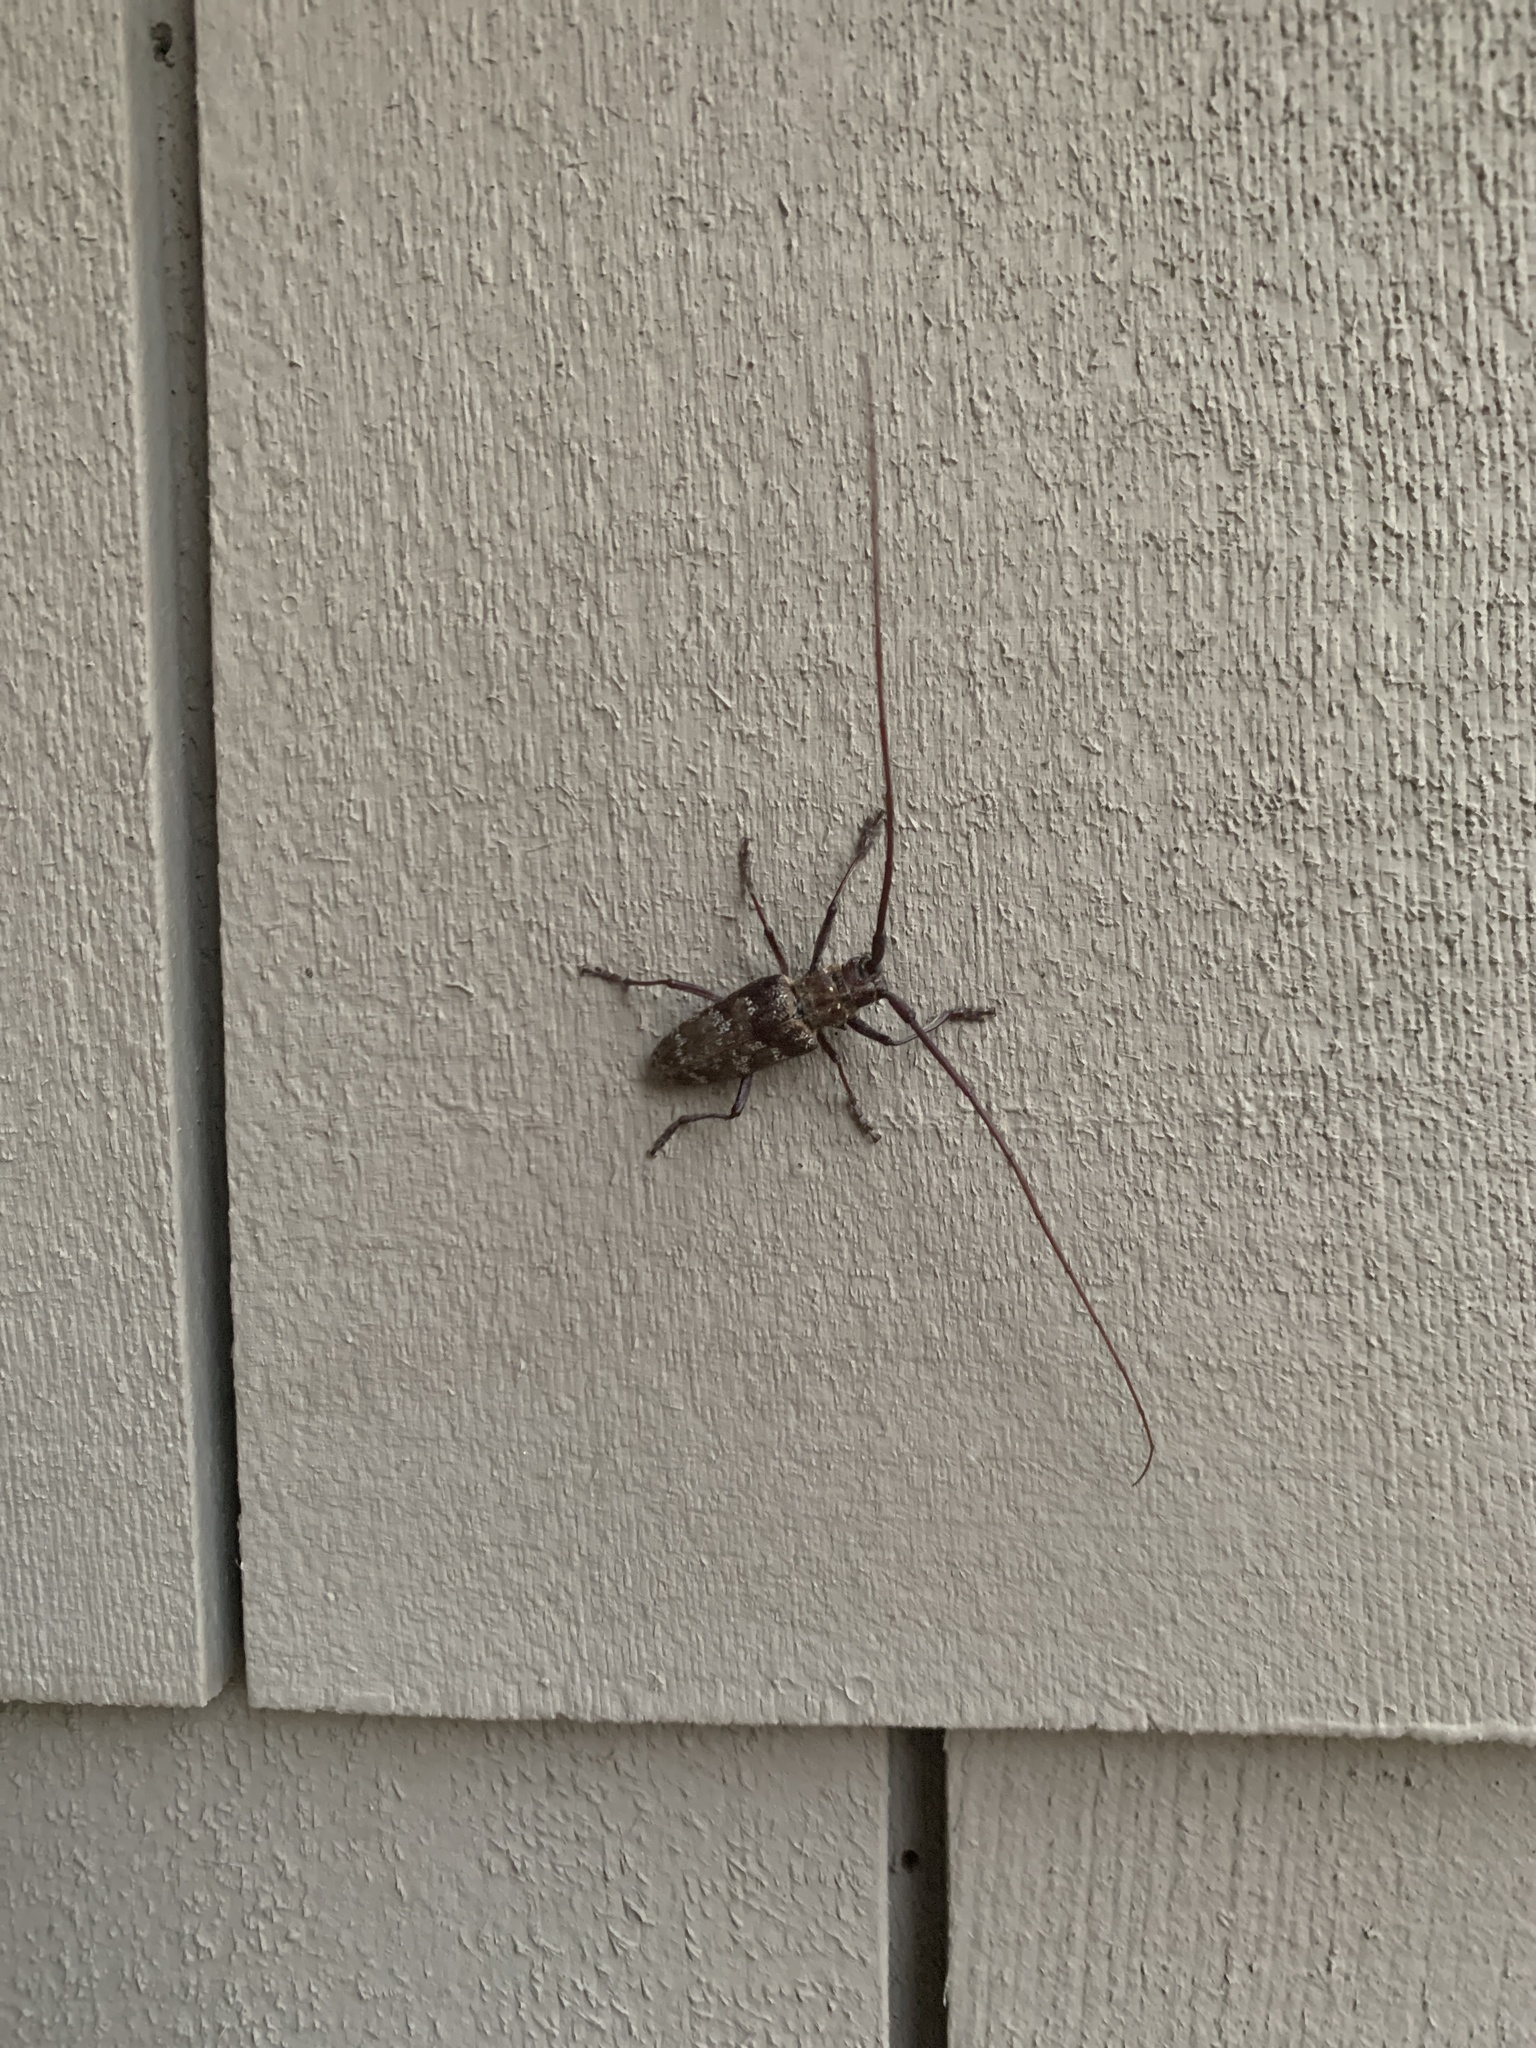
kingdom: Animalia
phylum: Arthropoda
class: Insecta
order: Coleoptera
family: Cerambycidae
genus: Monochamus
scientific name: Monochamus obtusus
